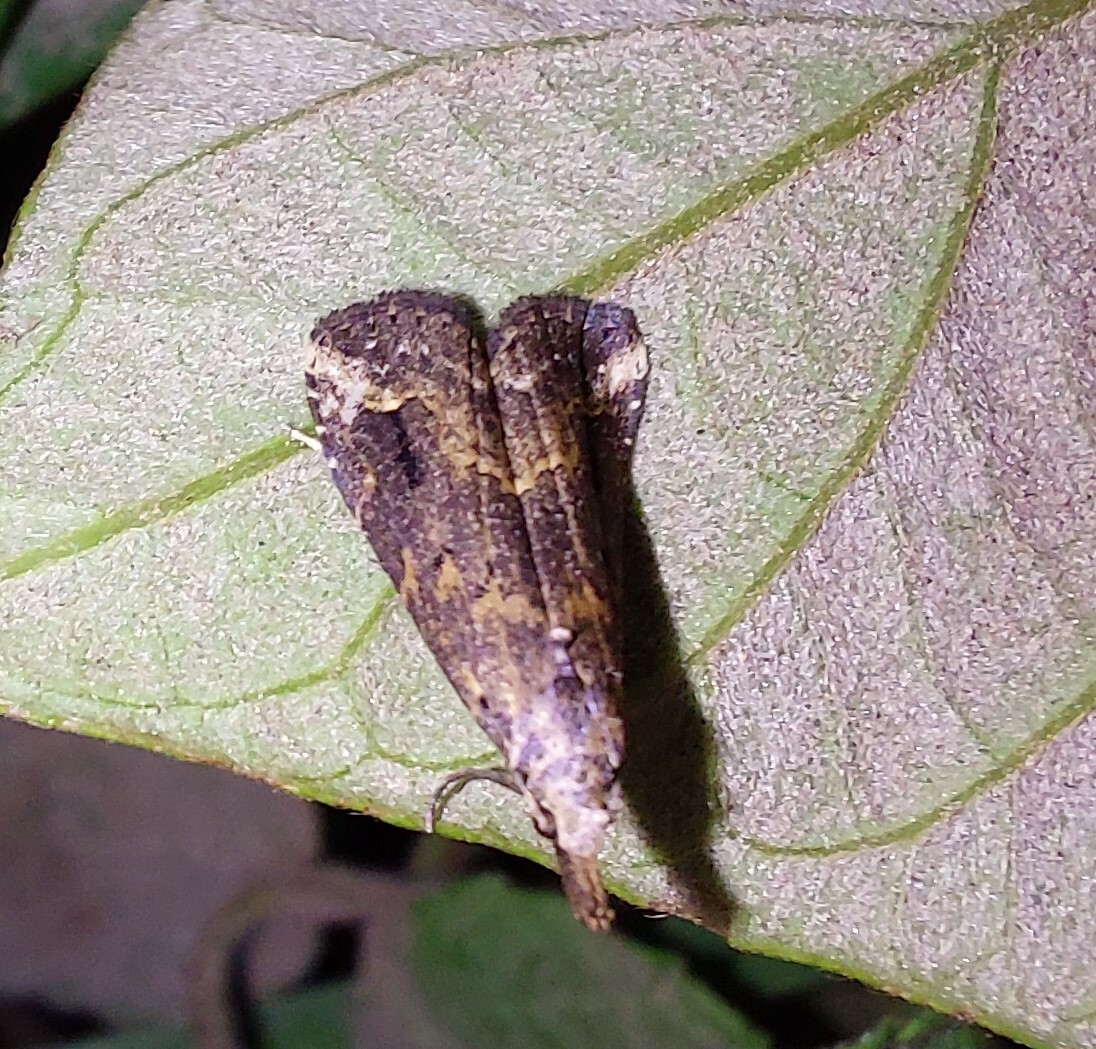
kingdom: Animalia
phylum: Arthropoda
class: Insecta
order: Lepidoptera
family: Erebidae
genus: Schrankia
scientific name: Schrankia costaestrigalis
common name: Pinion-streaked snout
